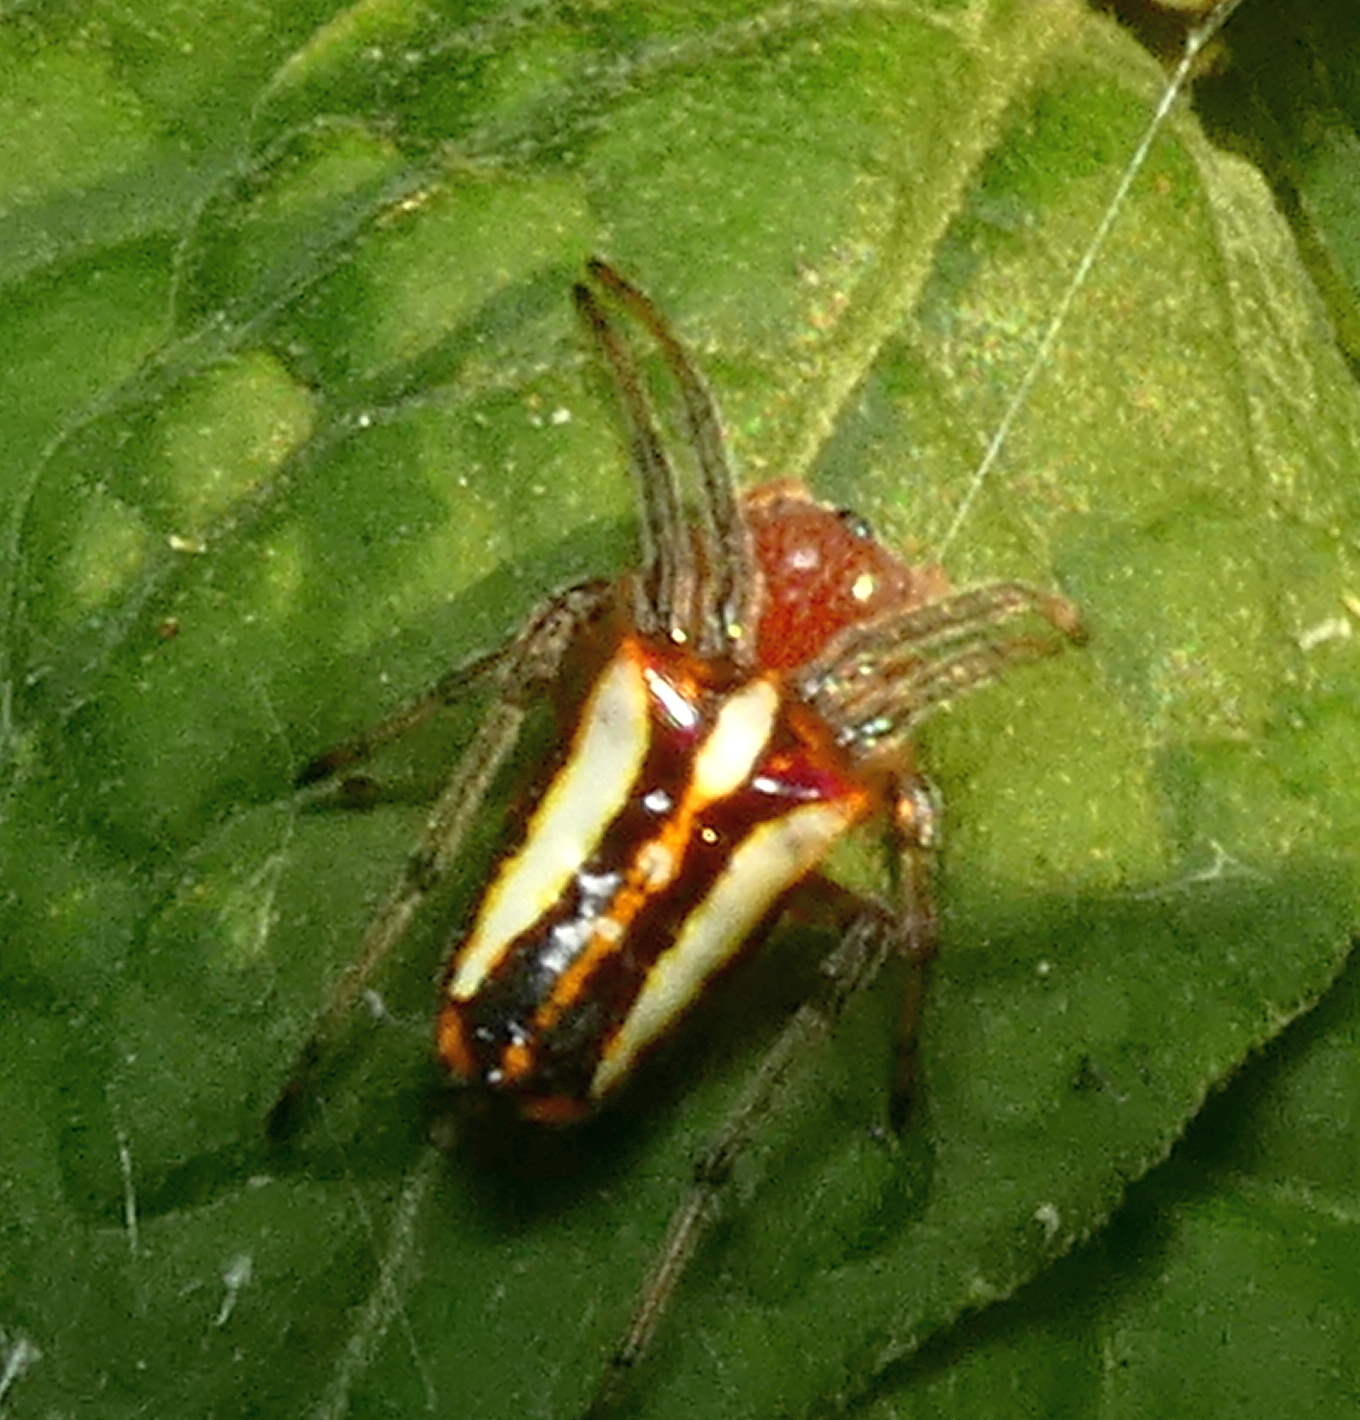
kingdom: Animalia
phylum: Arthropoda
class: Arachnida
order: Araneae
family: Araneidae
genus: Alpaida
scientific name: Alpaida bicornuta
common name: Orb weavers
